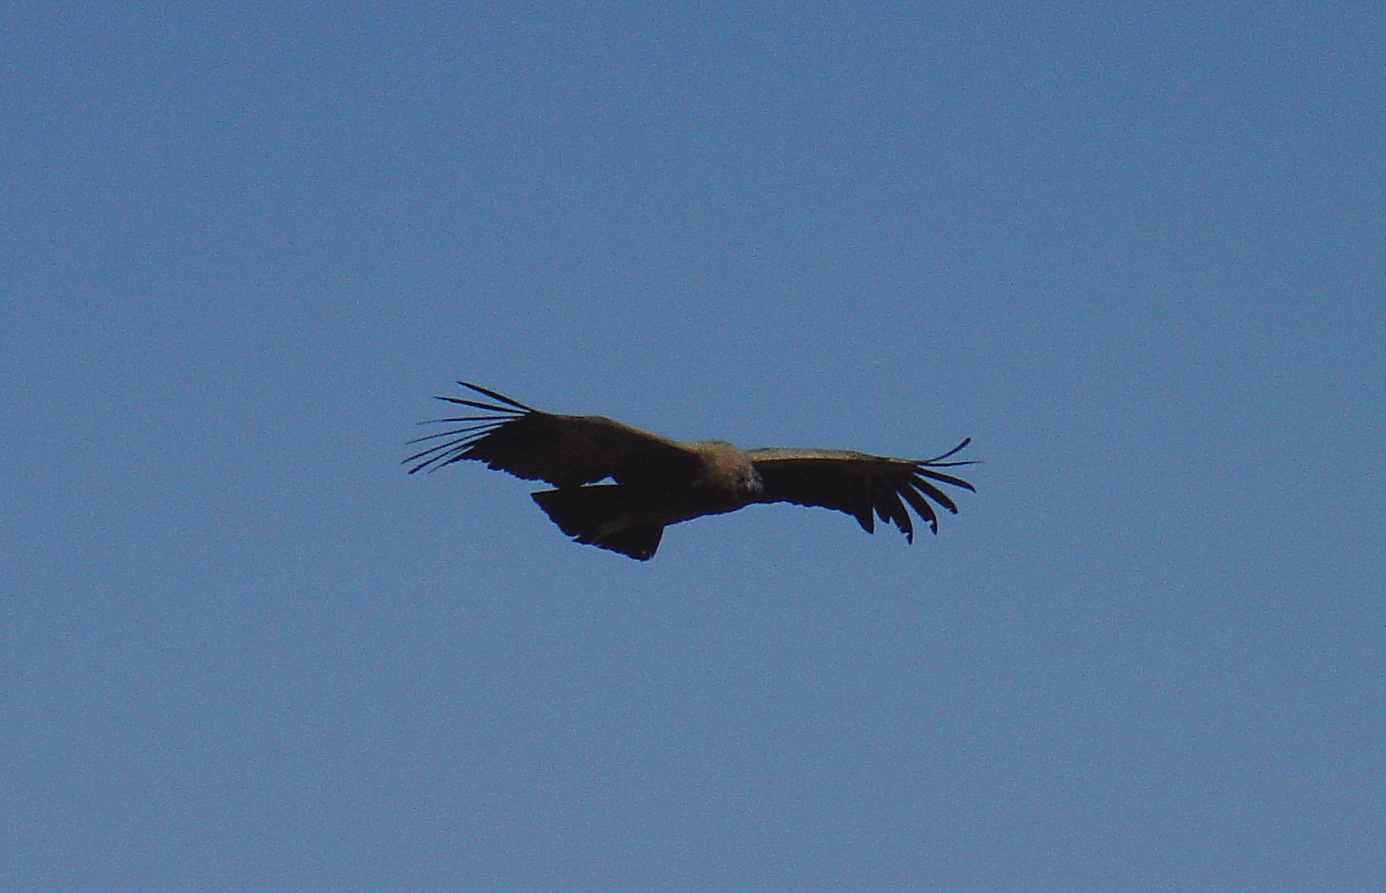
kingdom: Animalia
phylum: Chordata
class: Aves
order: Accipitriformes
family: Cathartidae
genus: Vultur
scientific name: Vultur gryphus
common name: Andean condor
